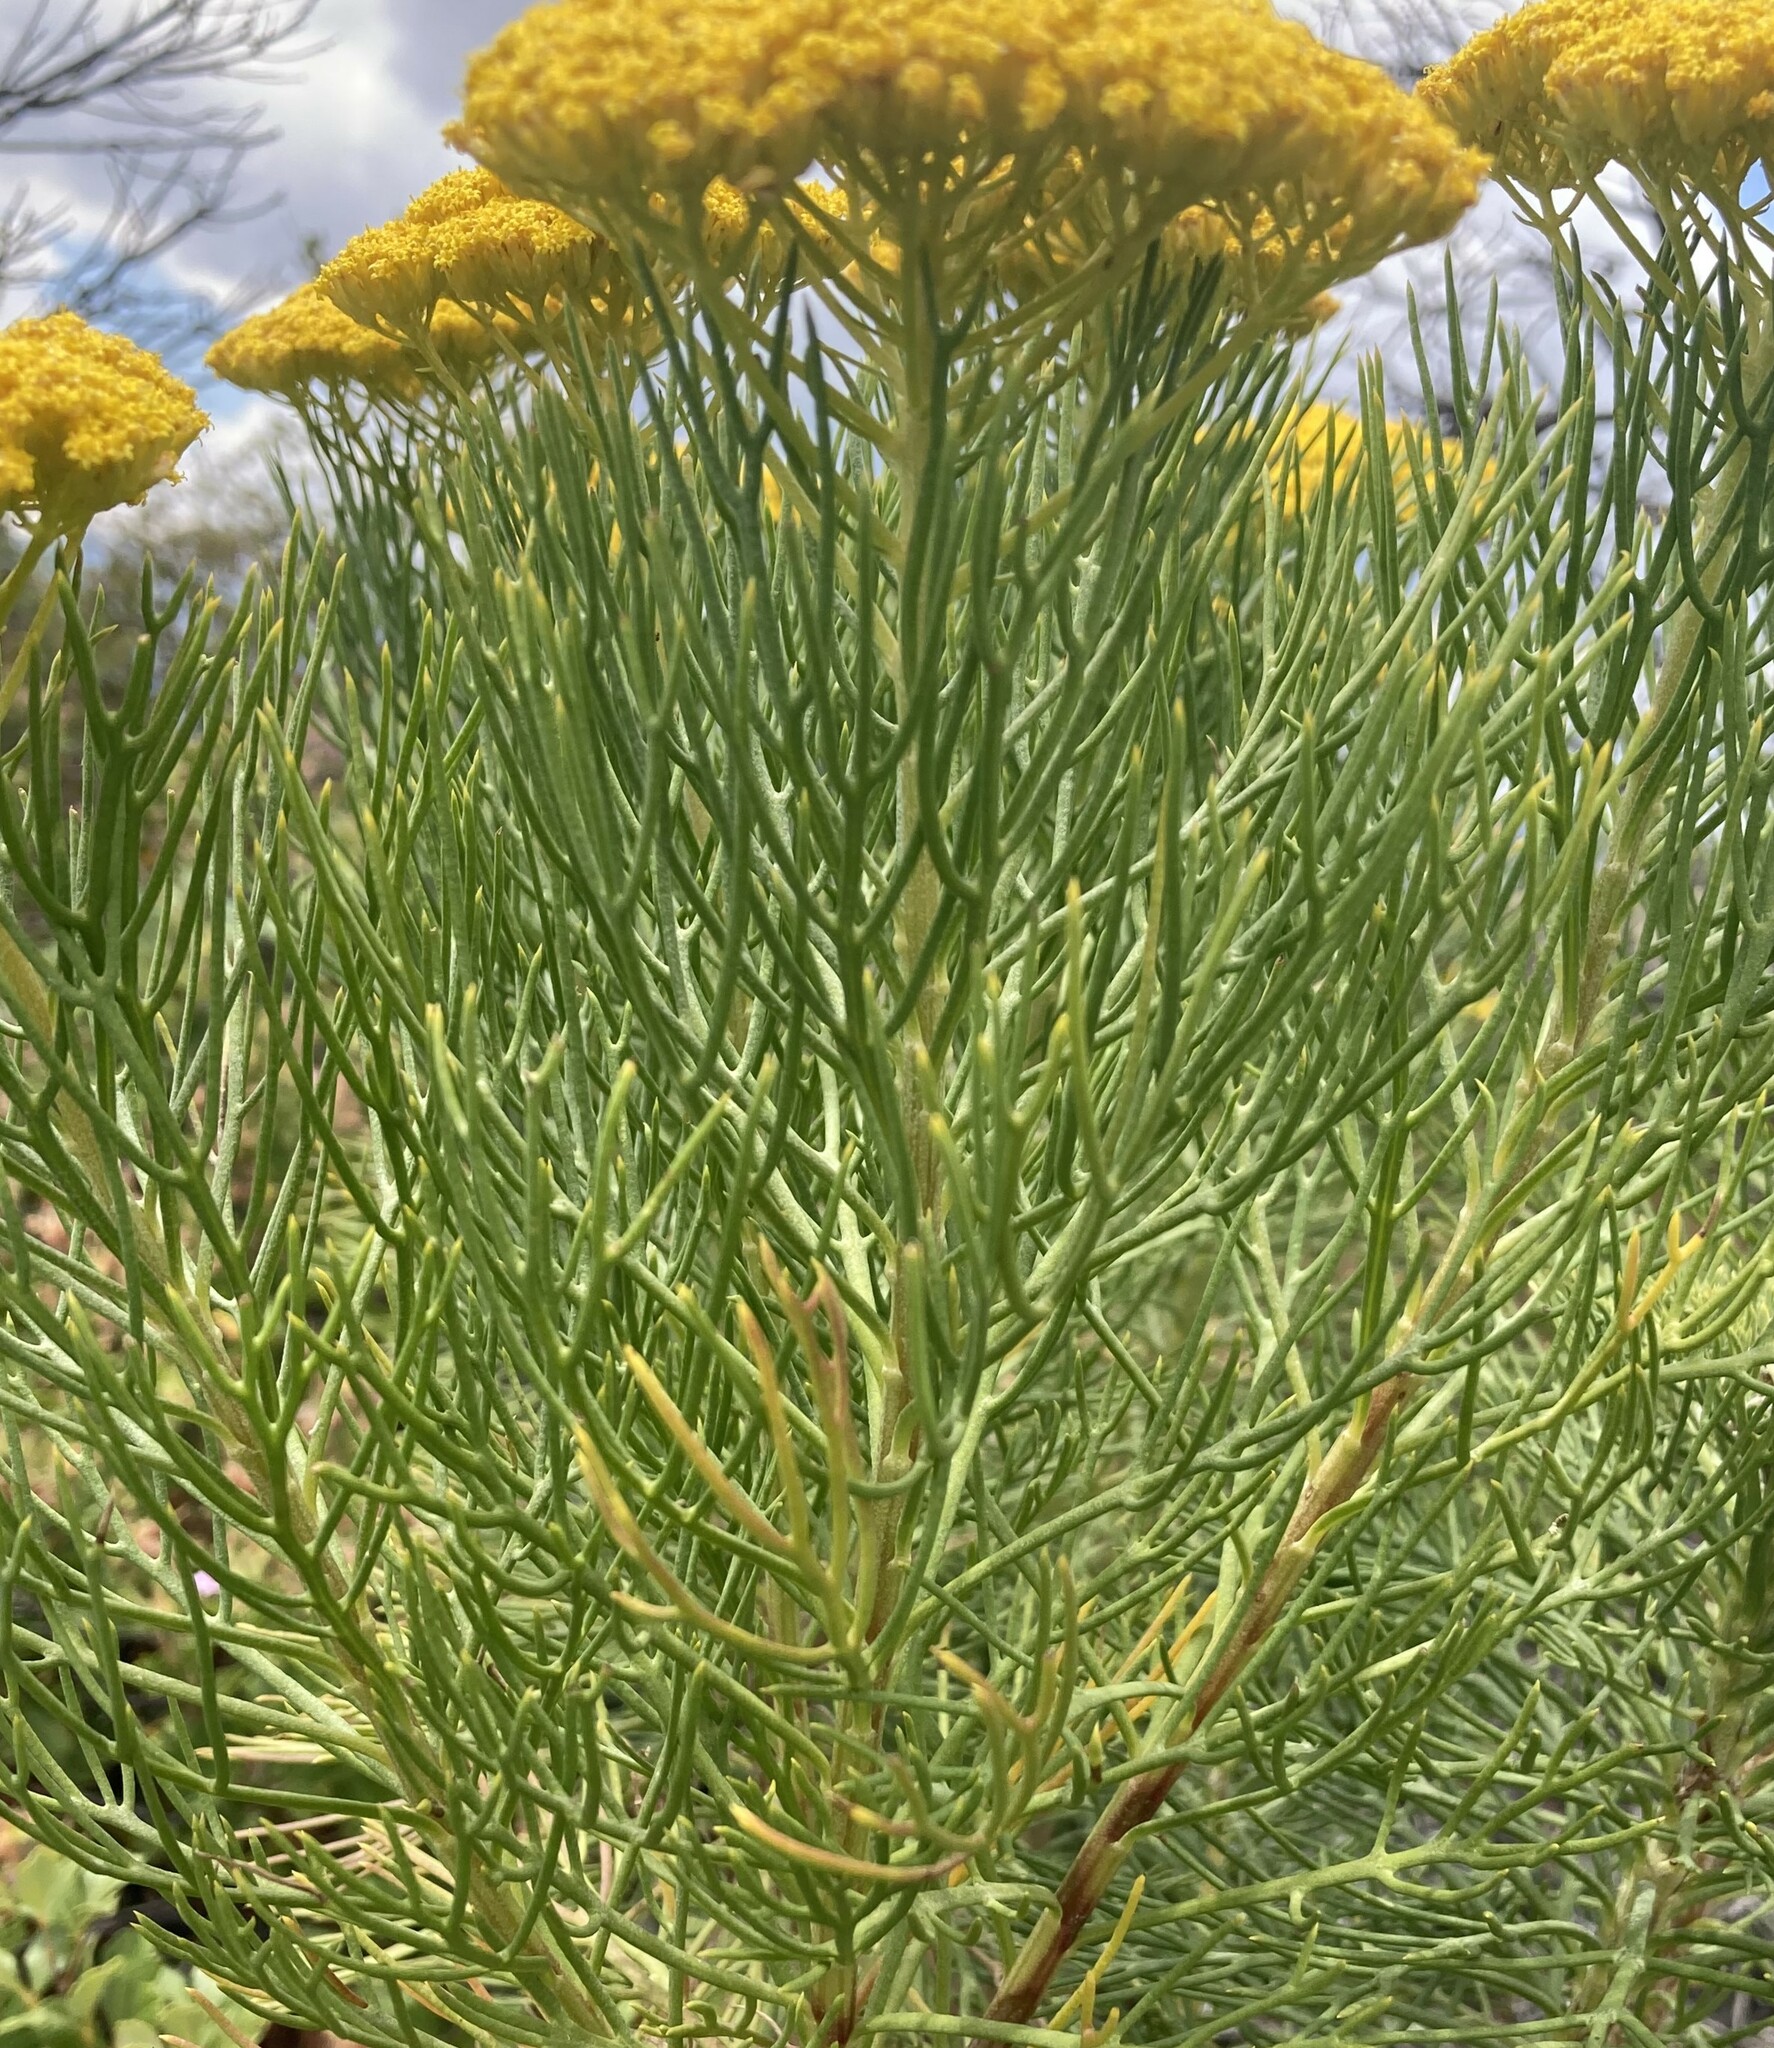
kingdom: Plantae
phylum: Tracheophyta
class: Magnoliopsida
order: Asterales
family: Asteraceae
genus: Hymenolepis
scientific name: Hymenolepis crithmifolia
